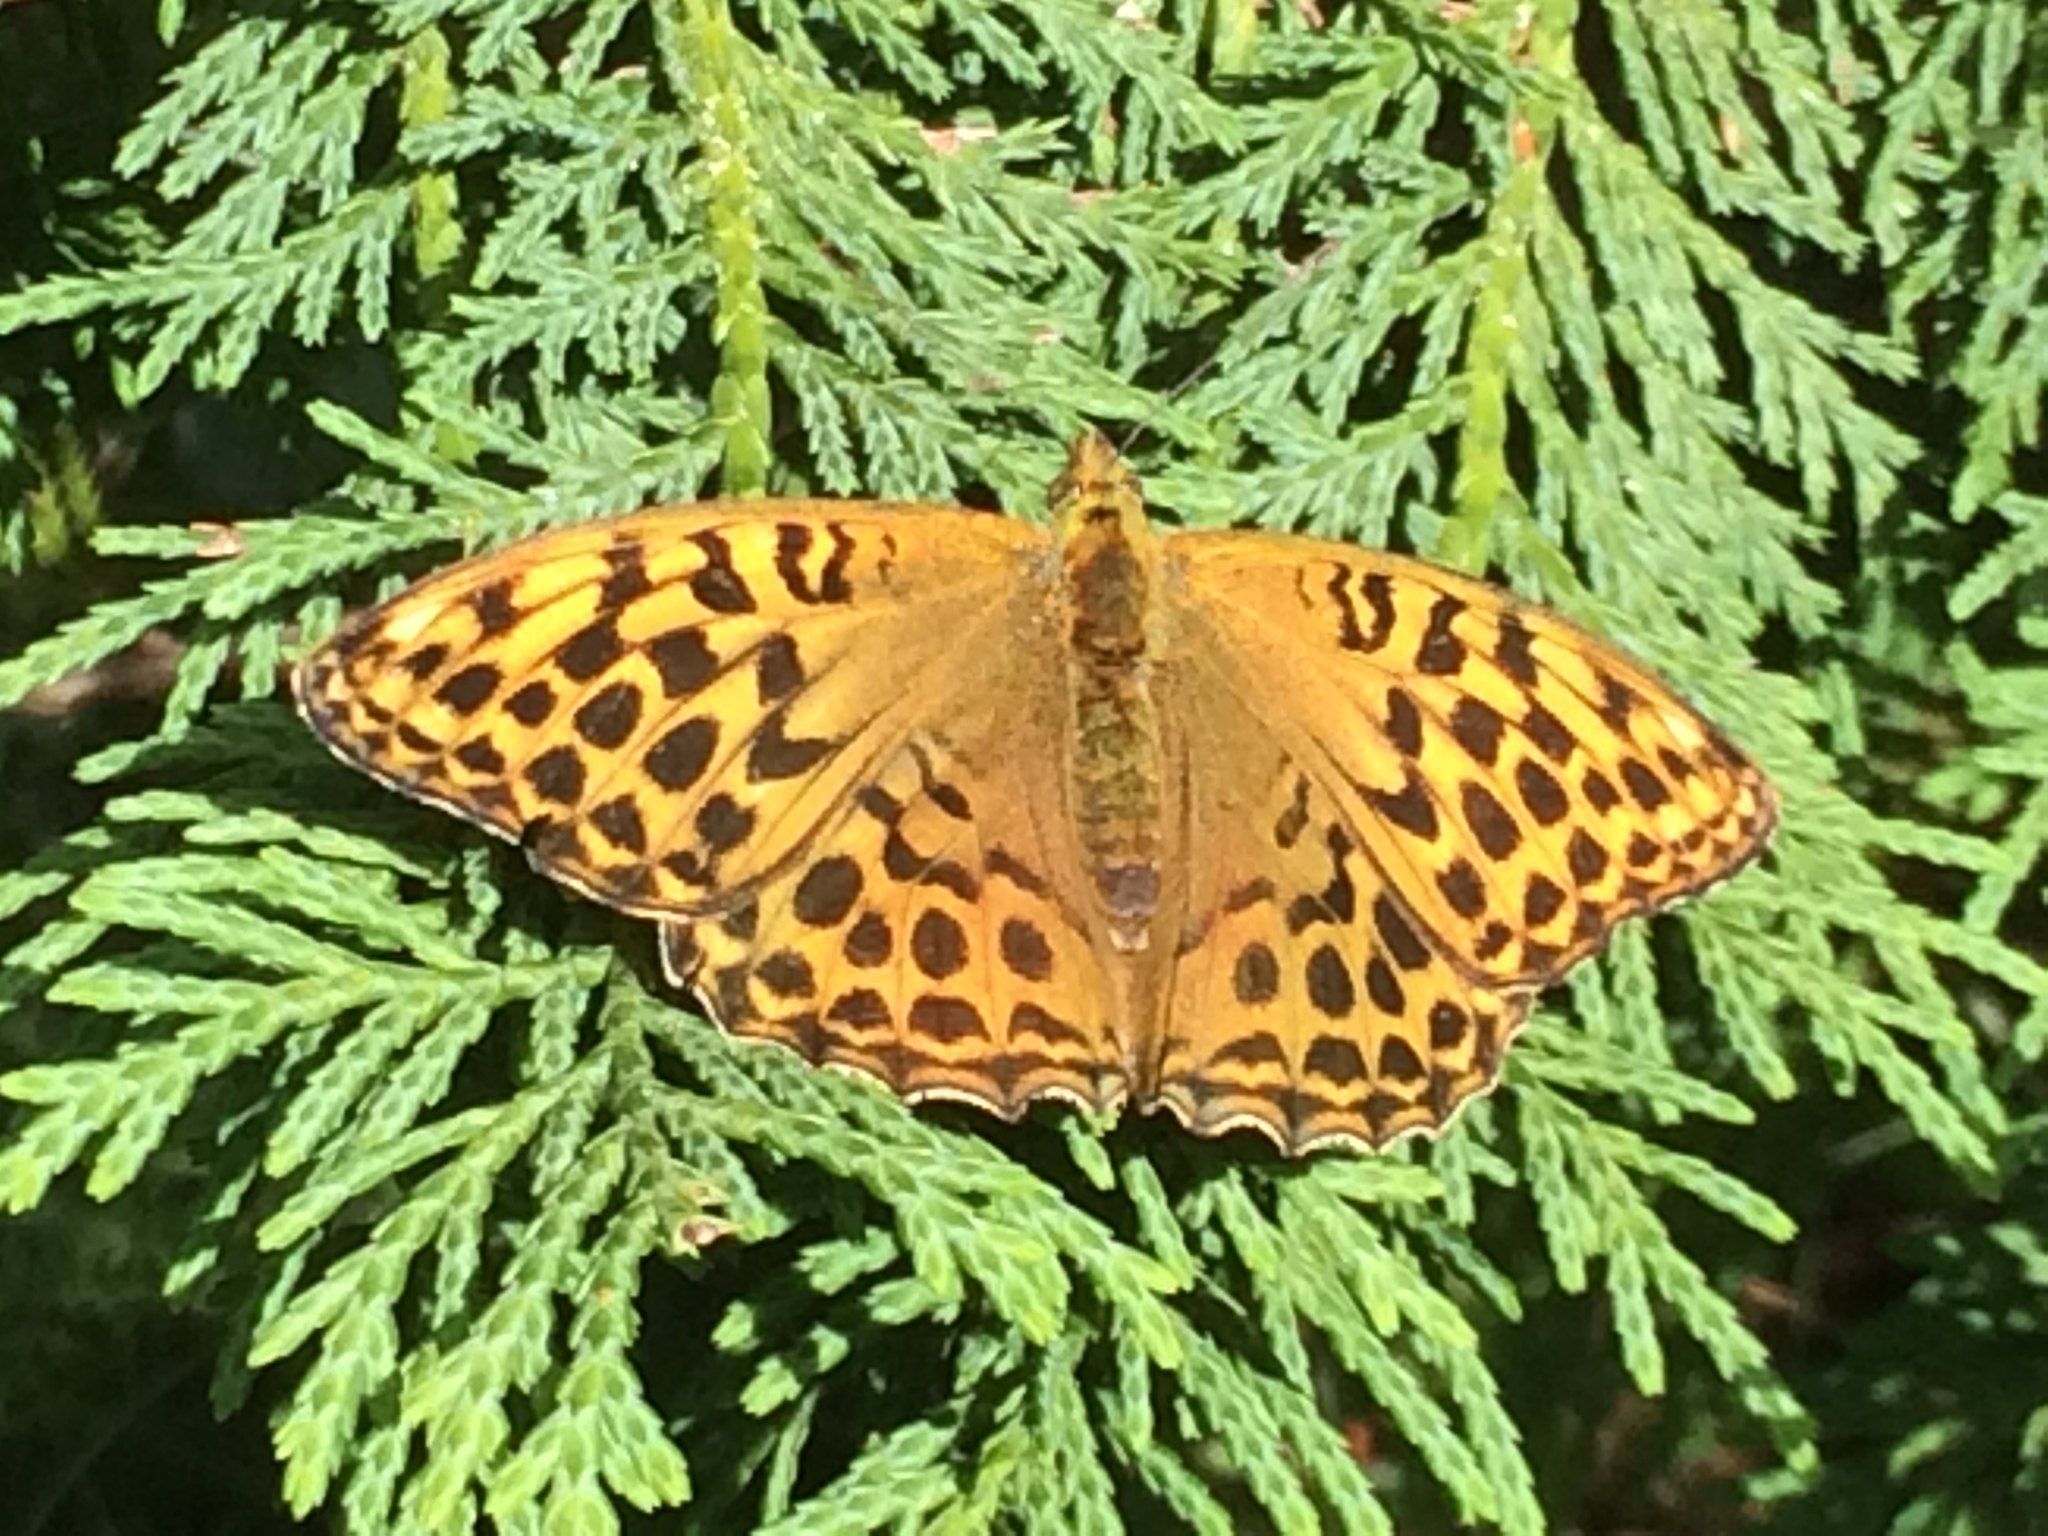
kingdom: Animalia
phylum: Arthropoda
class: Insecta
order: Lepidoptera
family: Nymphalidae
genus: Argynnis
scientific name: Argynnis paphia
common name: Silver-washed fritillary
